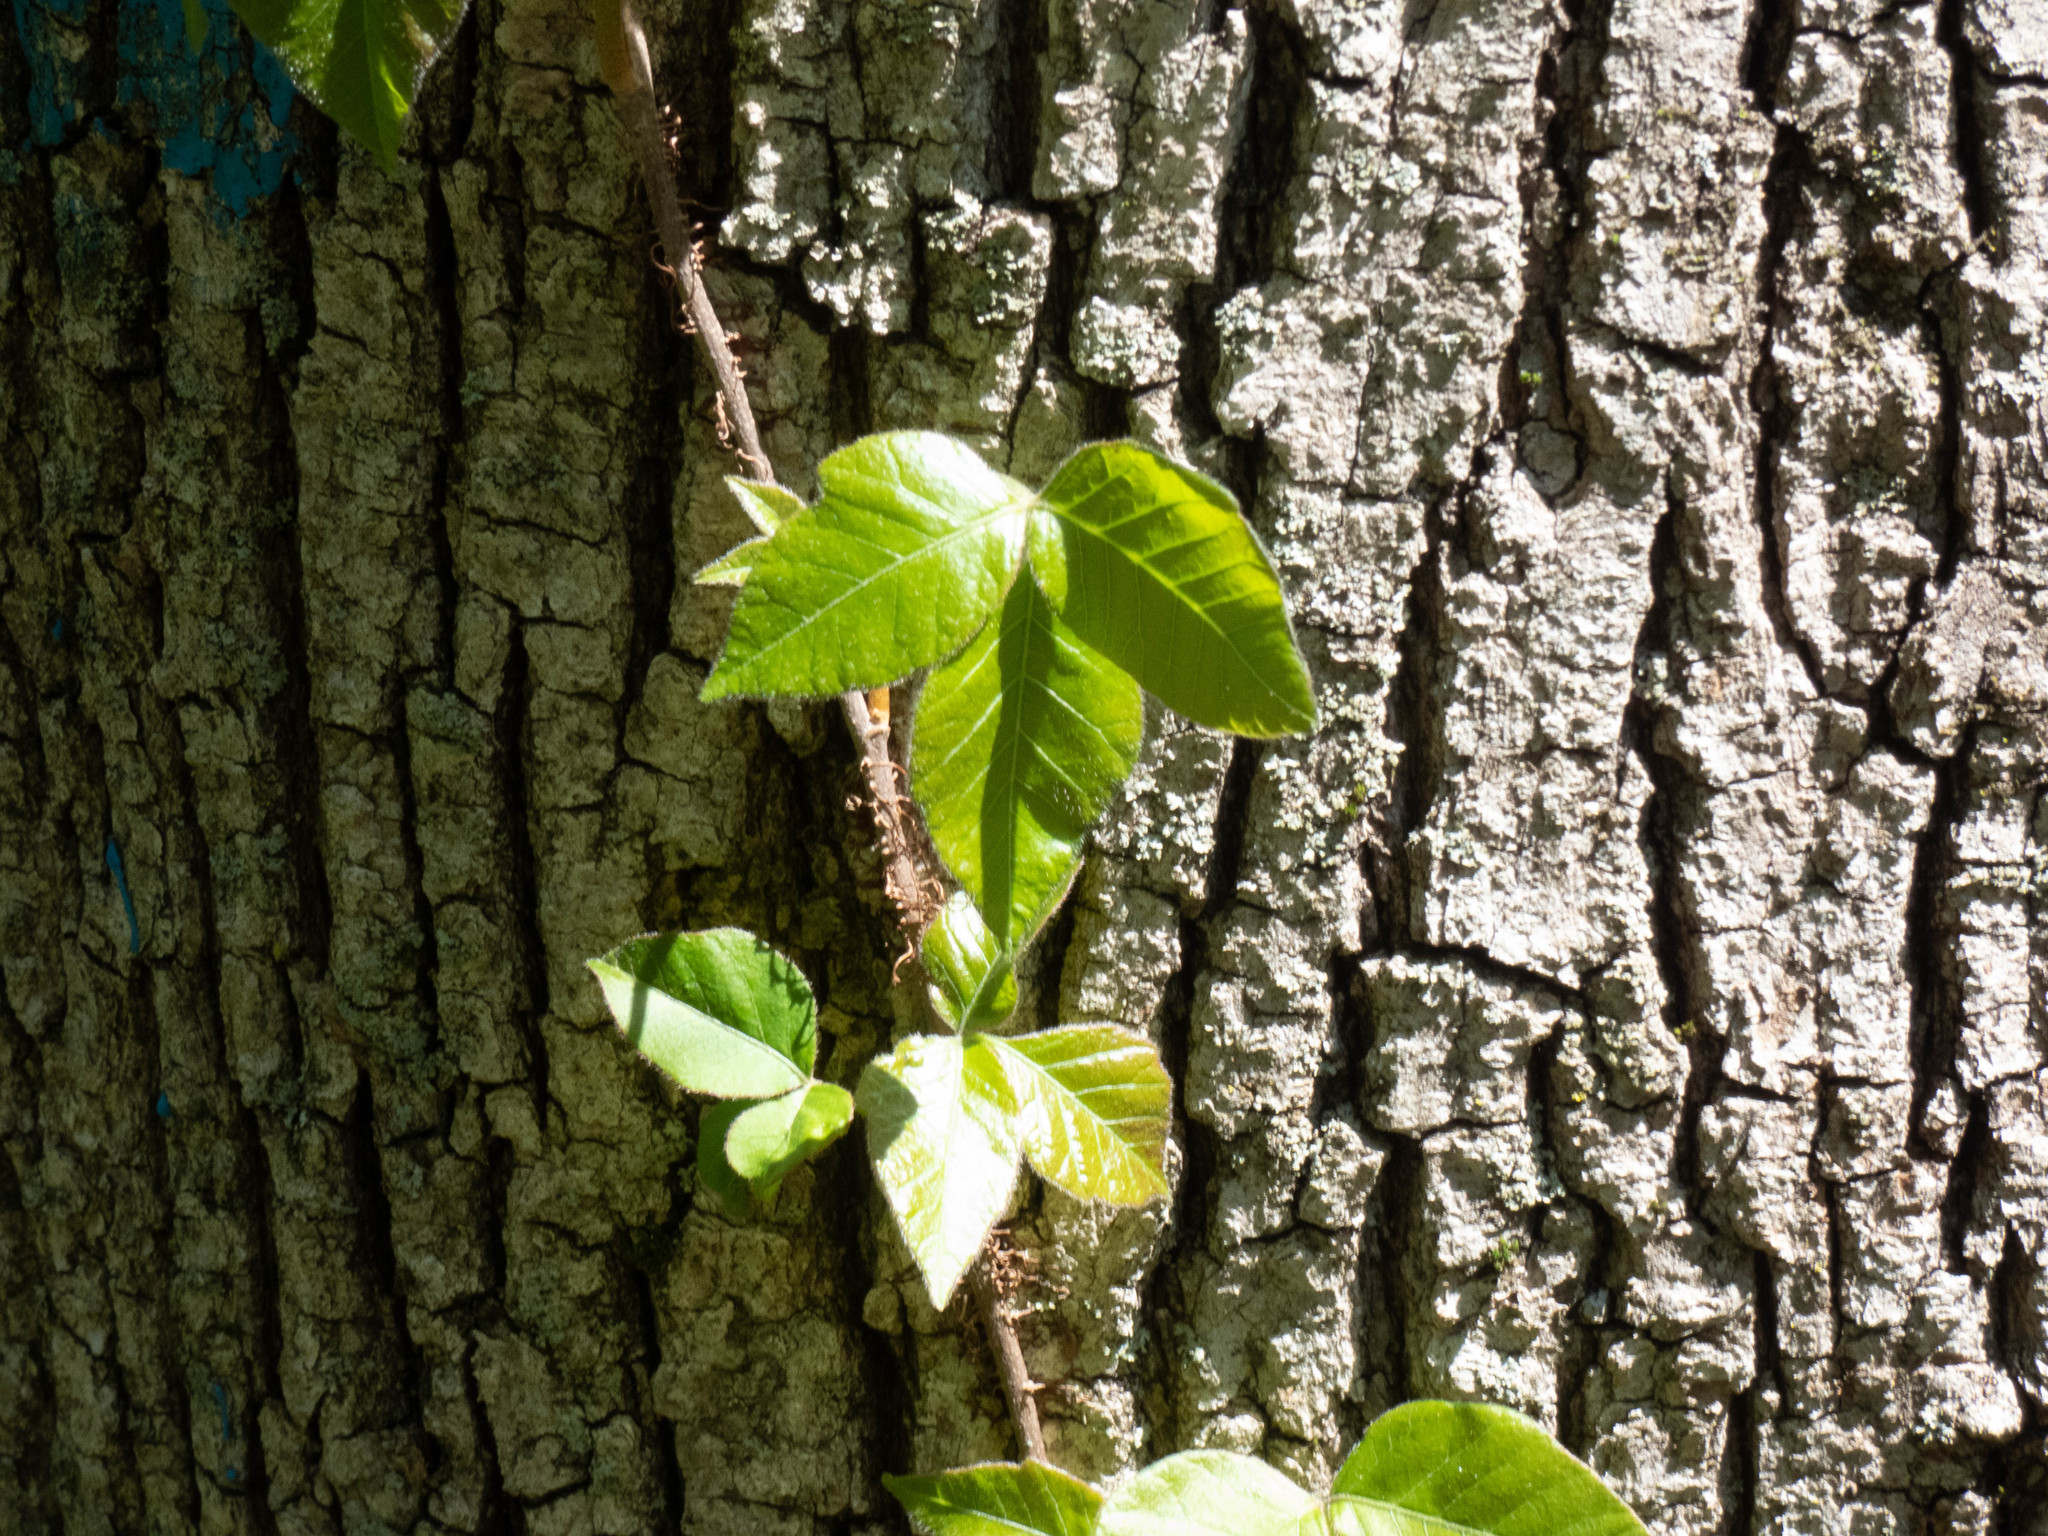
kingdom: Plantae
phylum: Tracheophyta
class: Magnoliopsida
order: Sapindales
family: Anacardiaceae
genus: Toxicodendron
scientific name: Toxicodendron radicans
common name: Poison ivy
